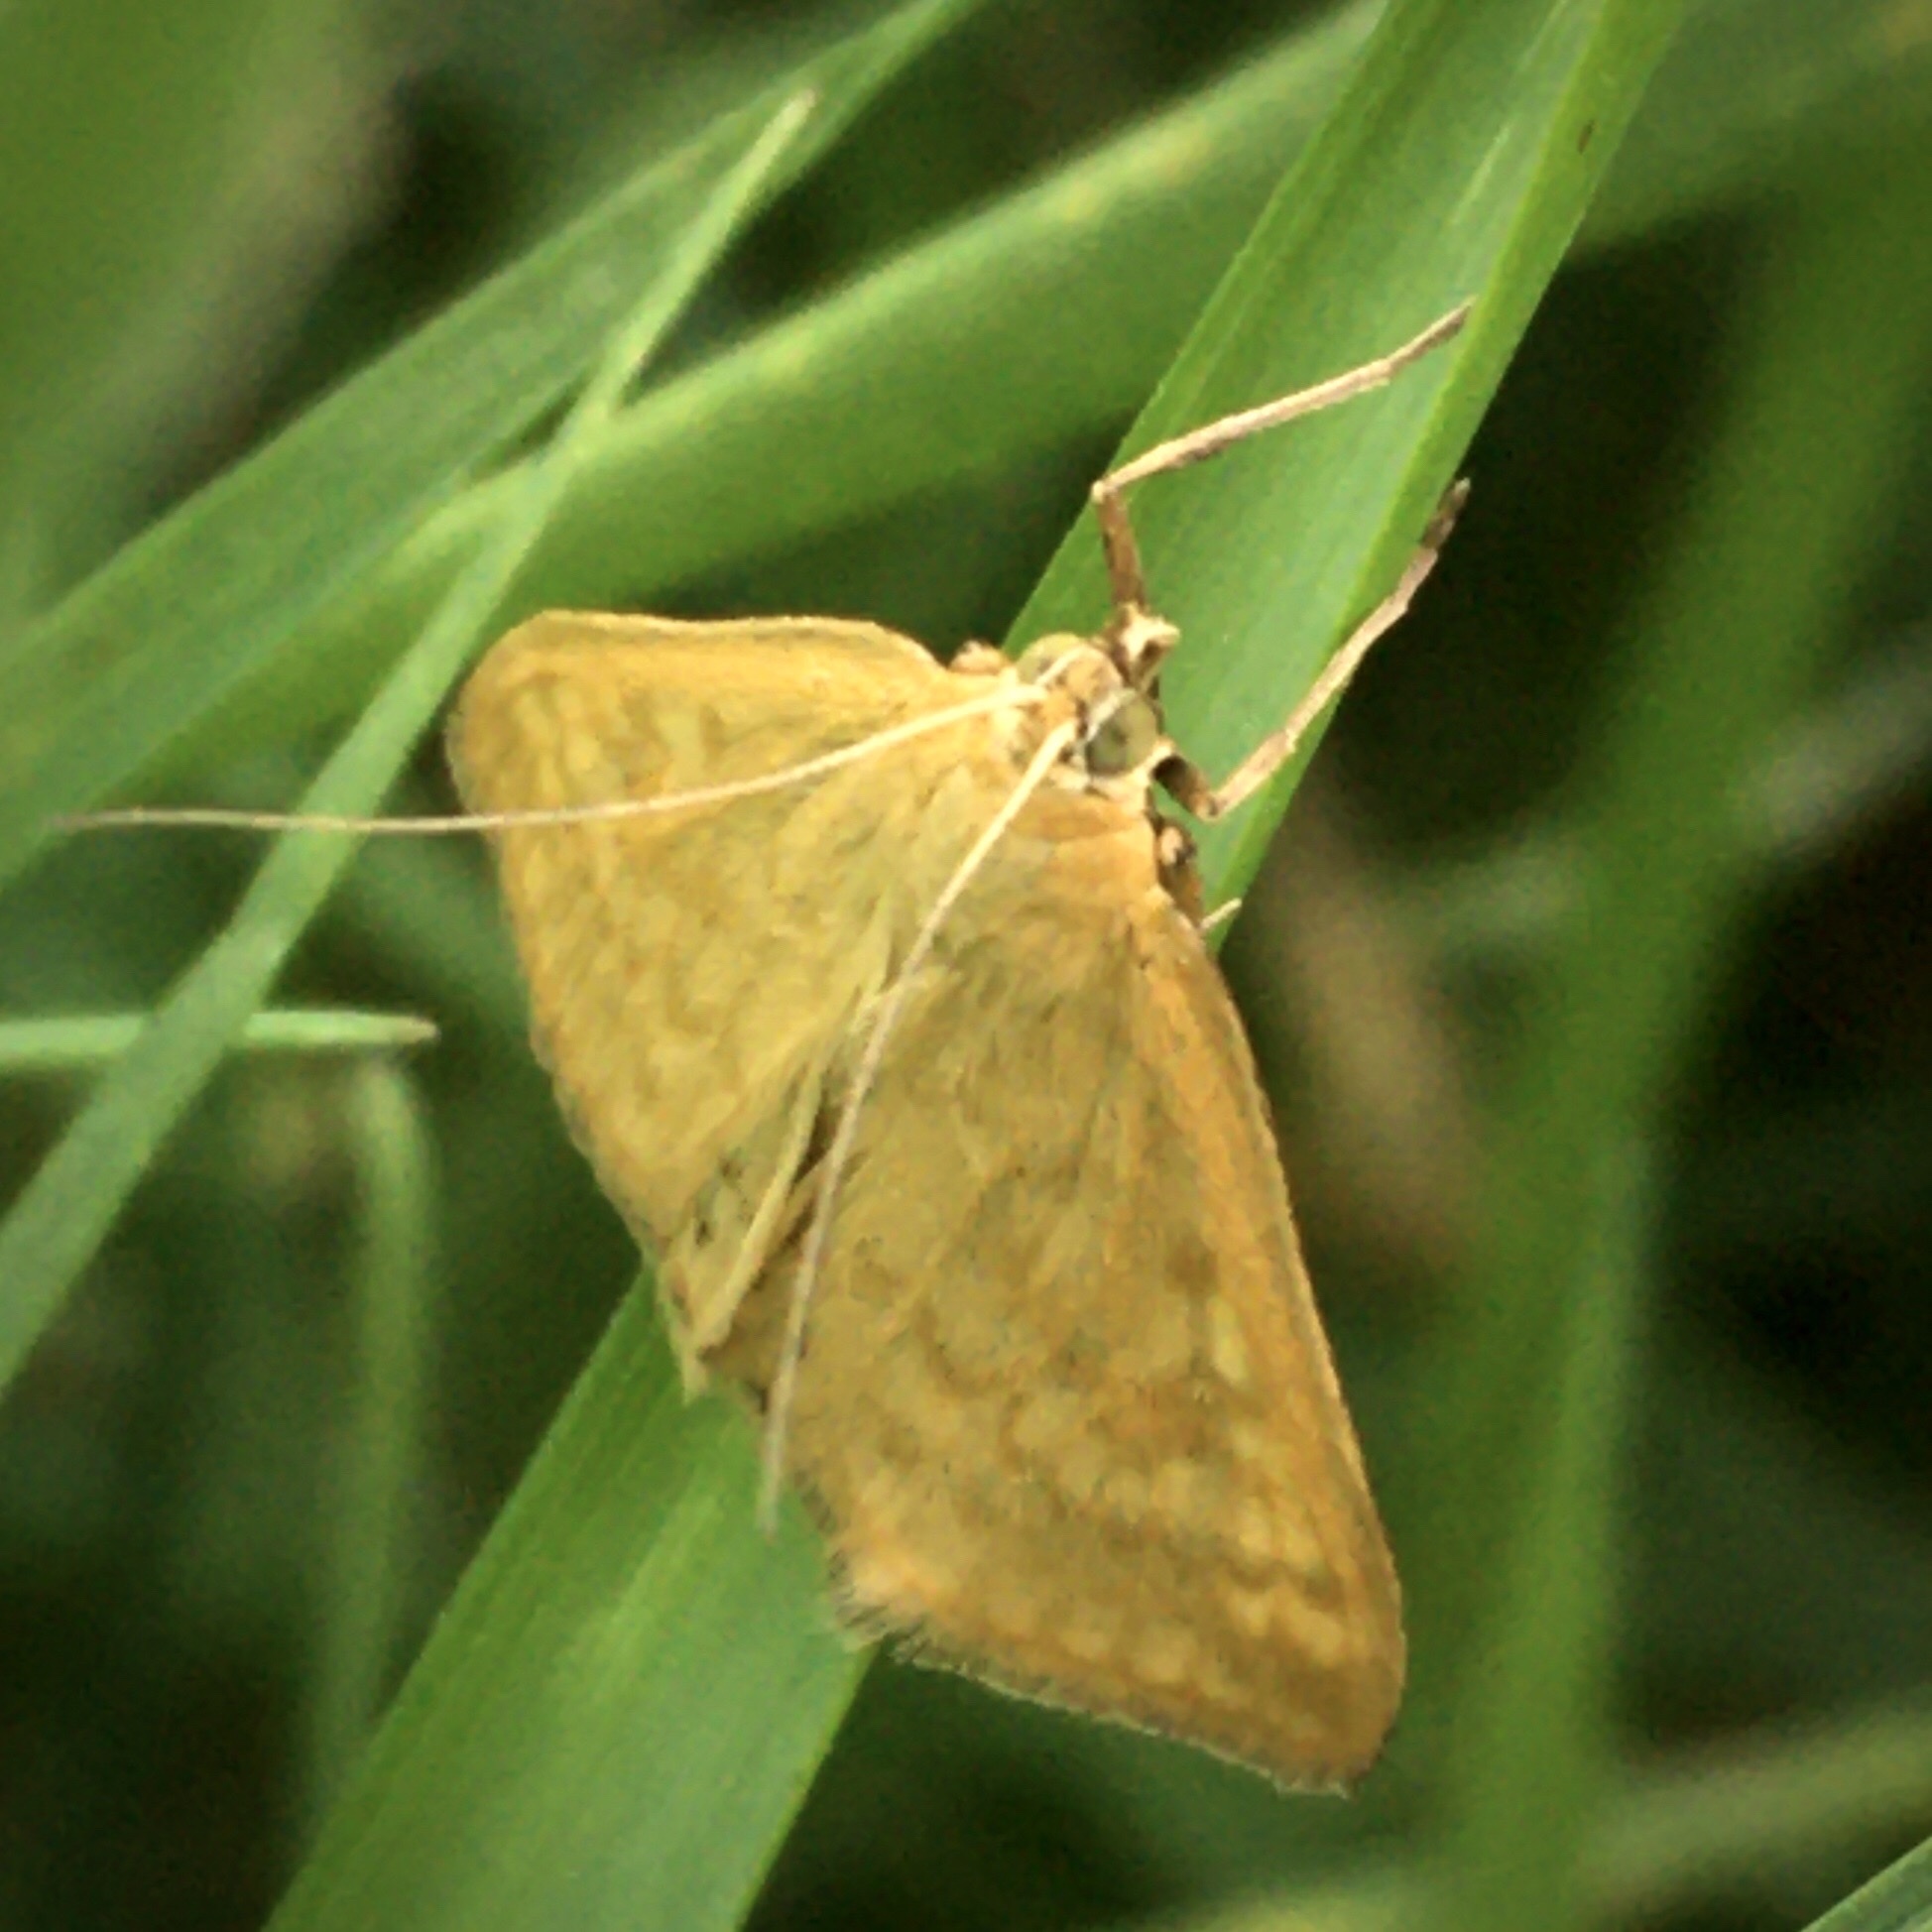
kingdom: Animalia
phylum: Arthropoda
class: Insecta
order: Lepidoptera
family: Crambidae
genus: Sitochroa
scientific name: Sitochroa verticalis
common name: Lesser pearl
